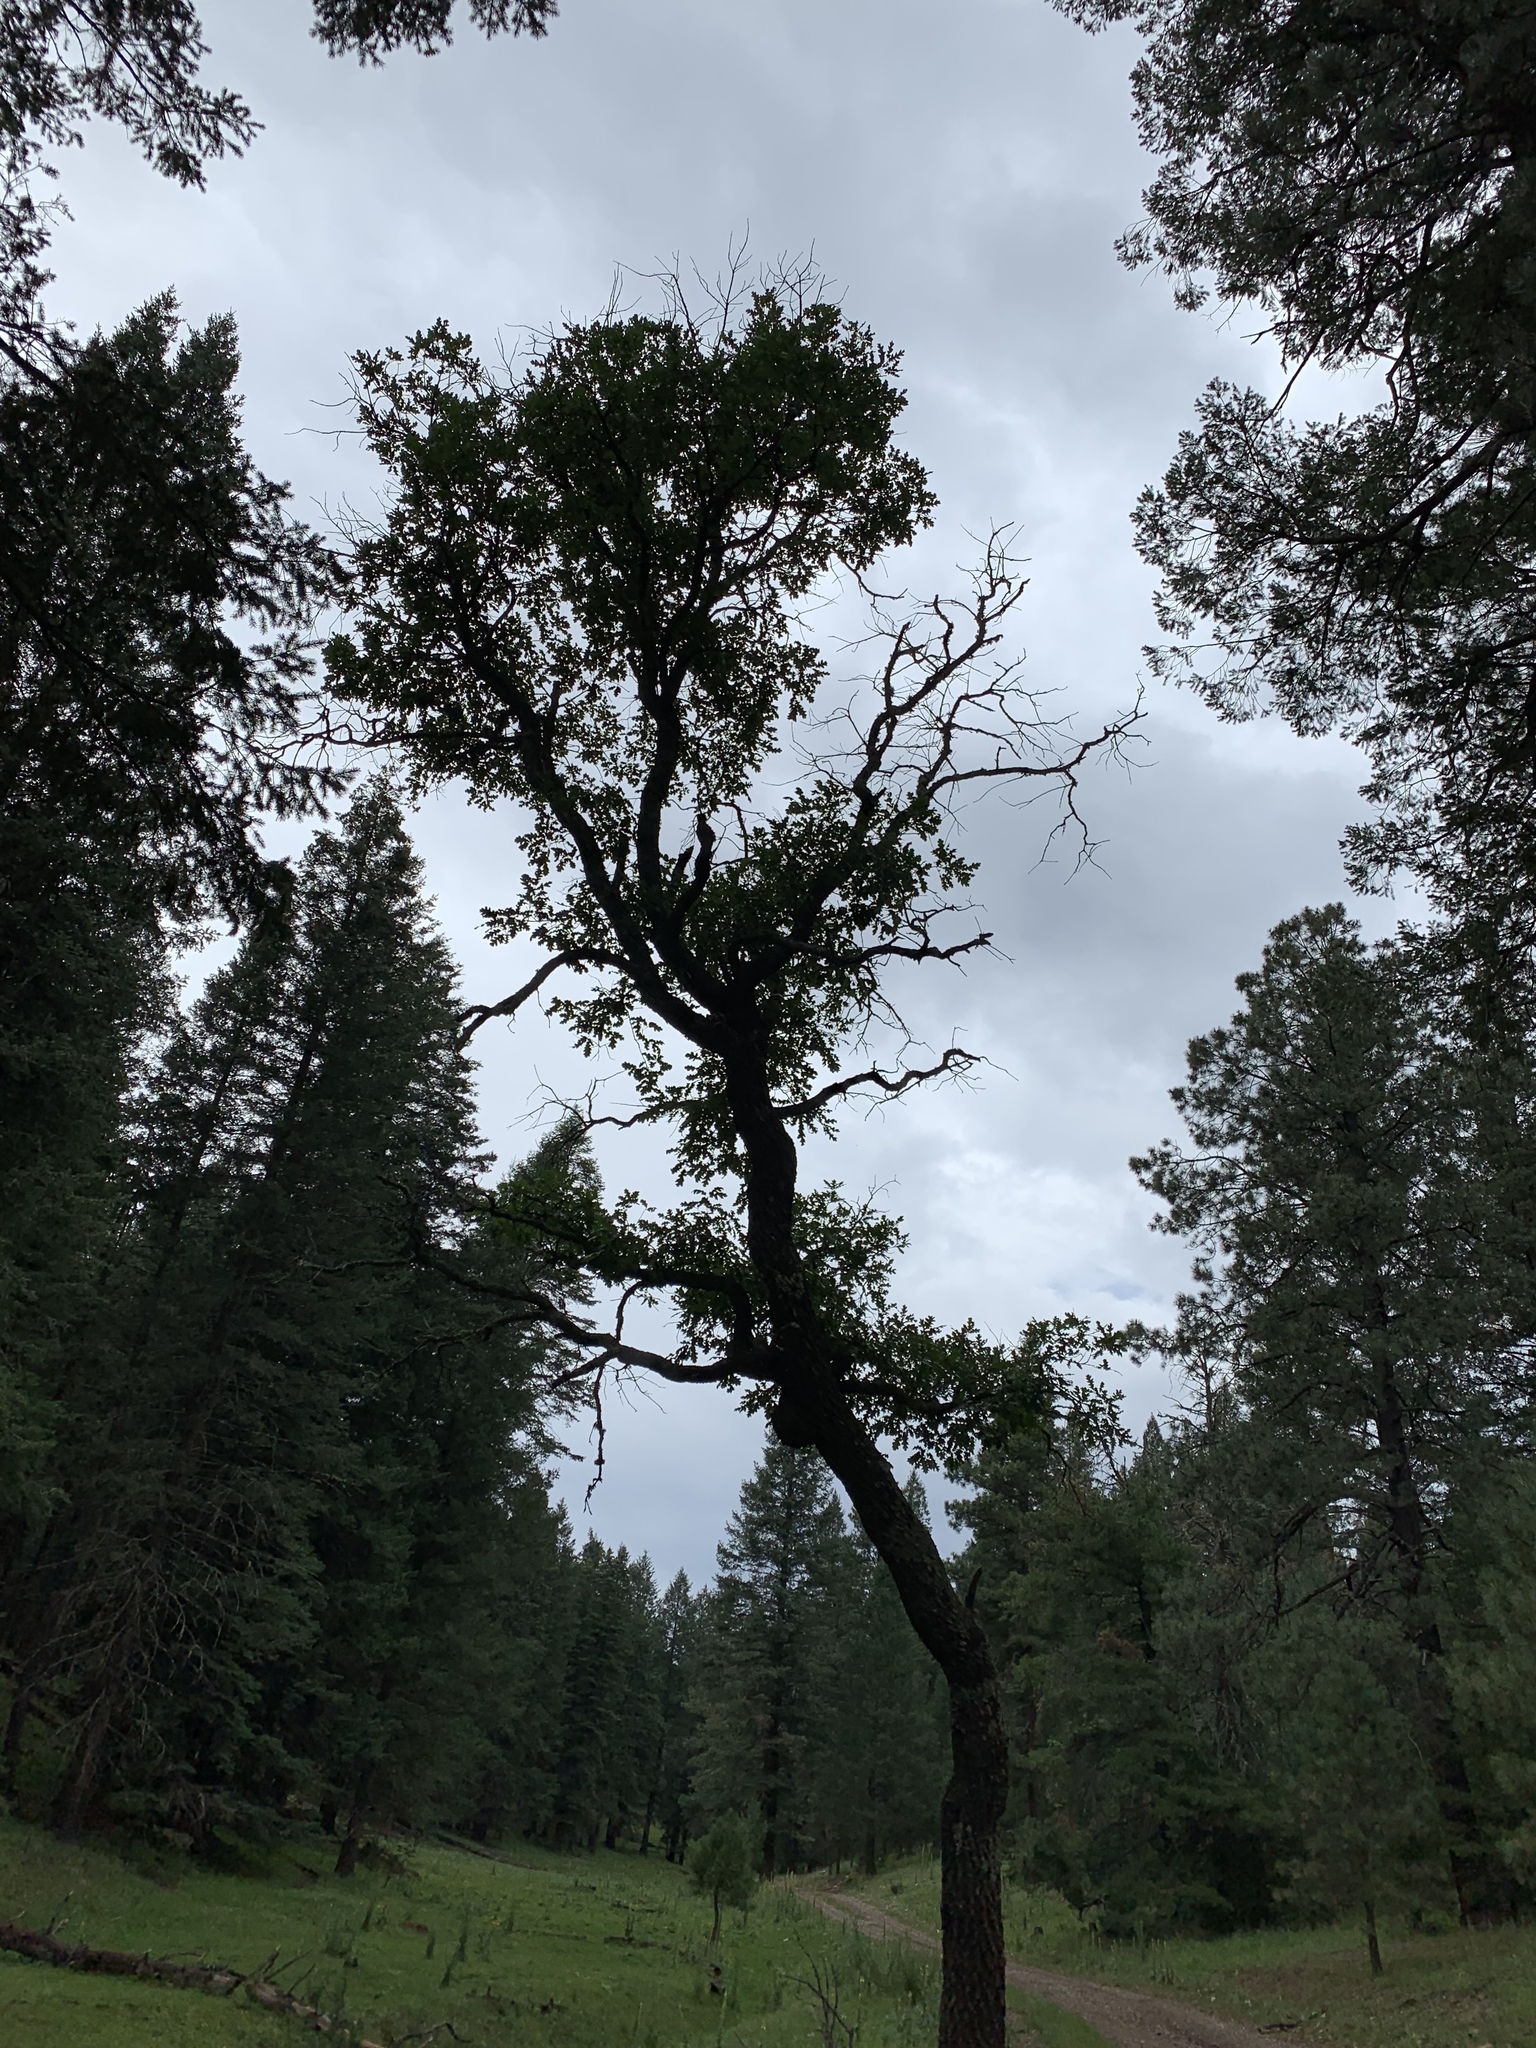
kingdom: Plantae
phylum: Tracheophyta
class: Magnoliopsida
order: Fagales
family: Fagaceae
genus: Quercus
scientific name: Quercus gambelii
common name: Gambel oak
